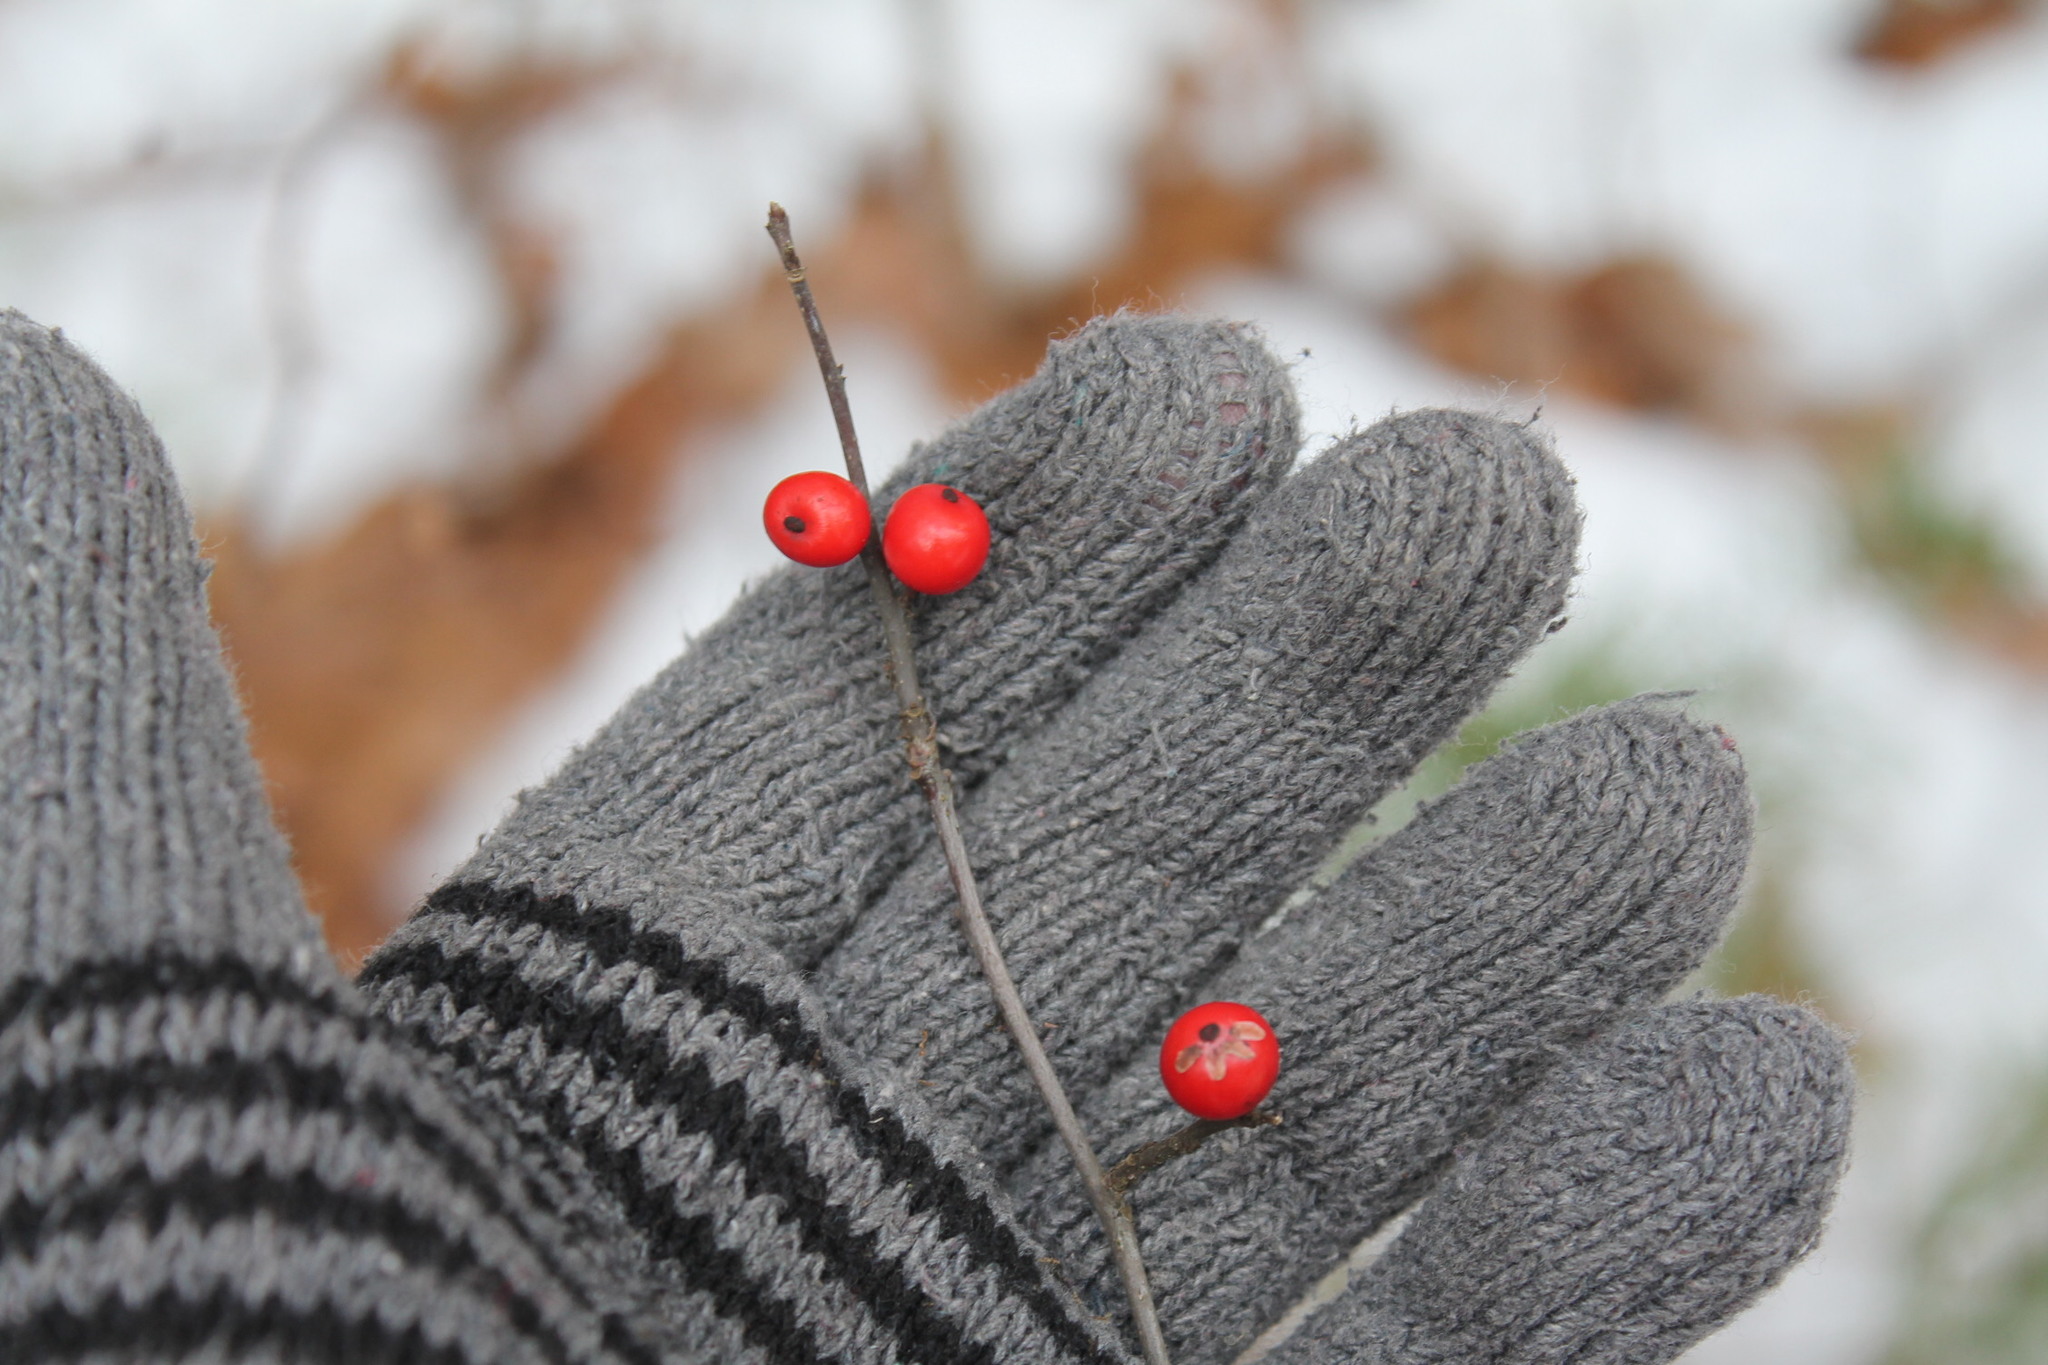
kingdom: Plantae
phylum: Tracheophyta
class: Magnoliopsida
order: Aquifoliales
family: Aquifoliaceae
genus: Ilex
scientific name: Ilex verticillata
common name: Virginia winterberry
